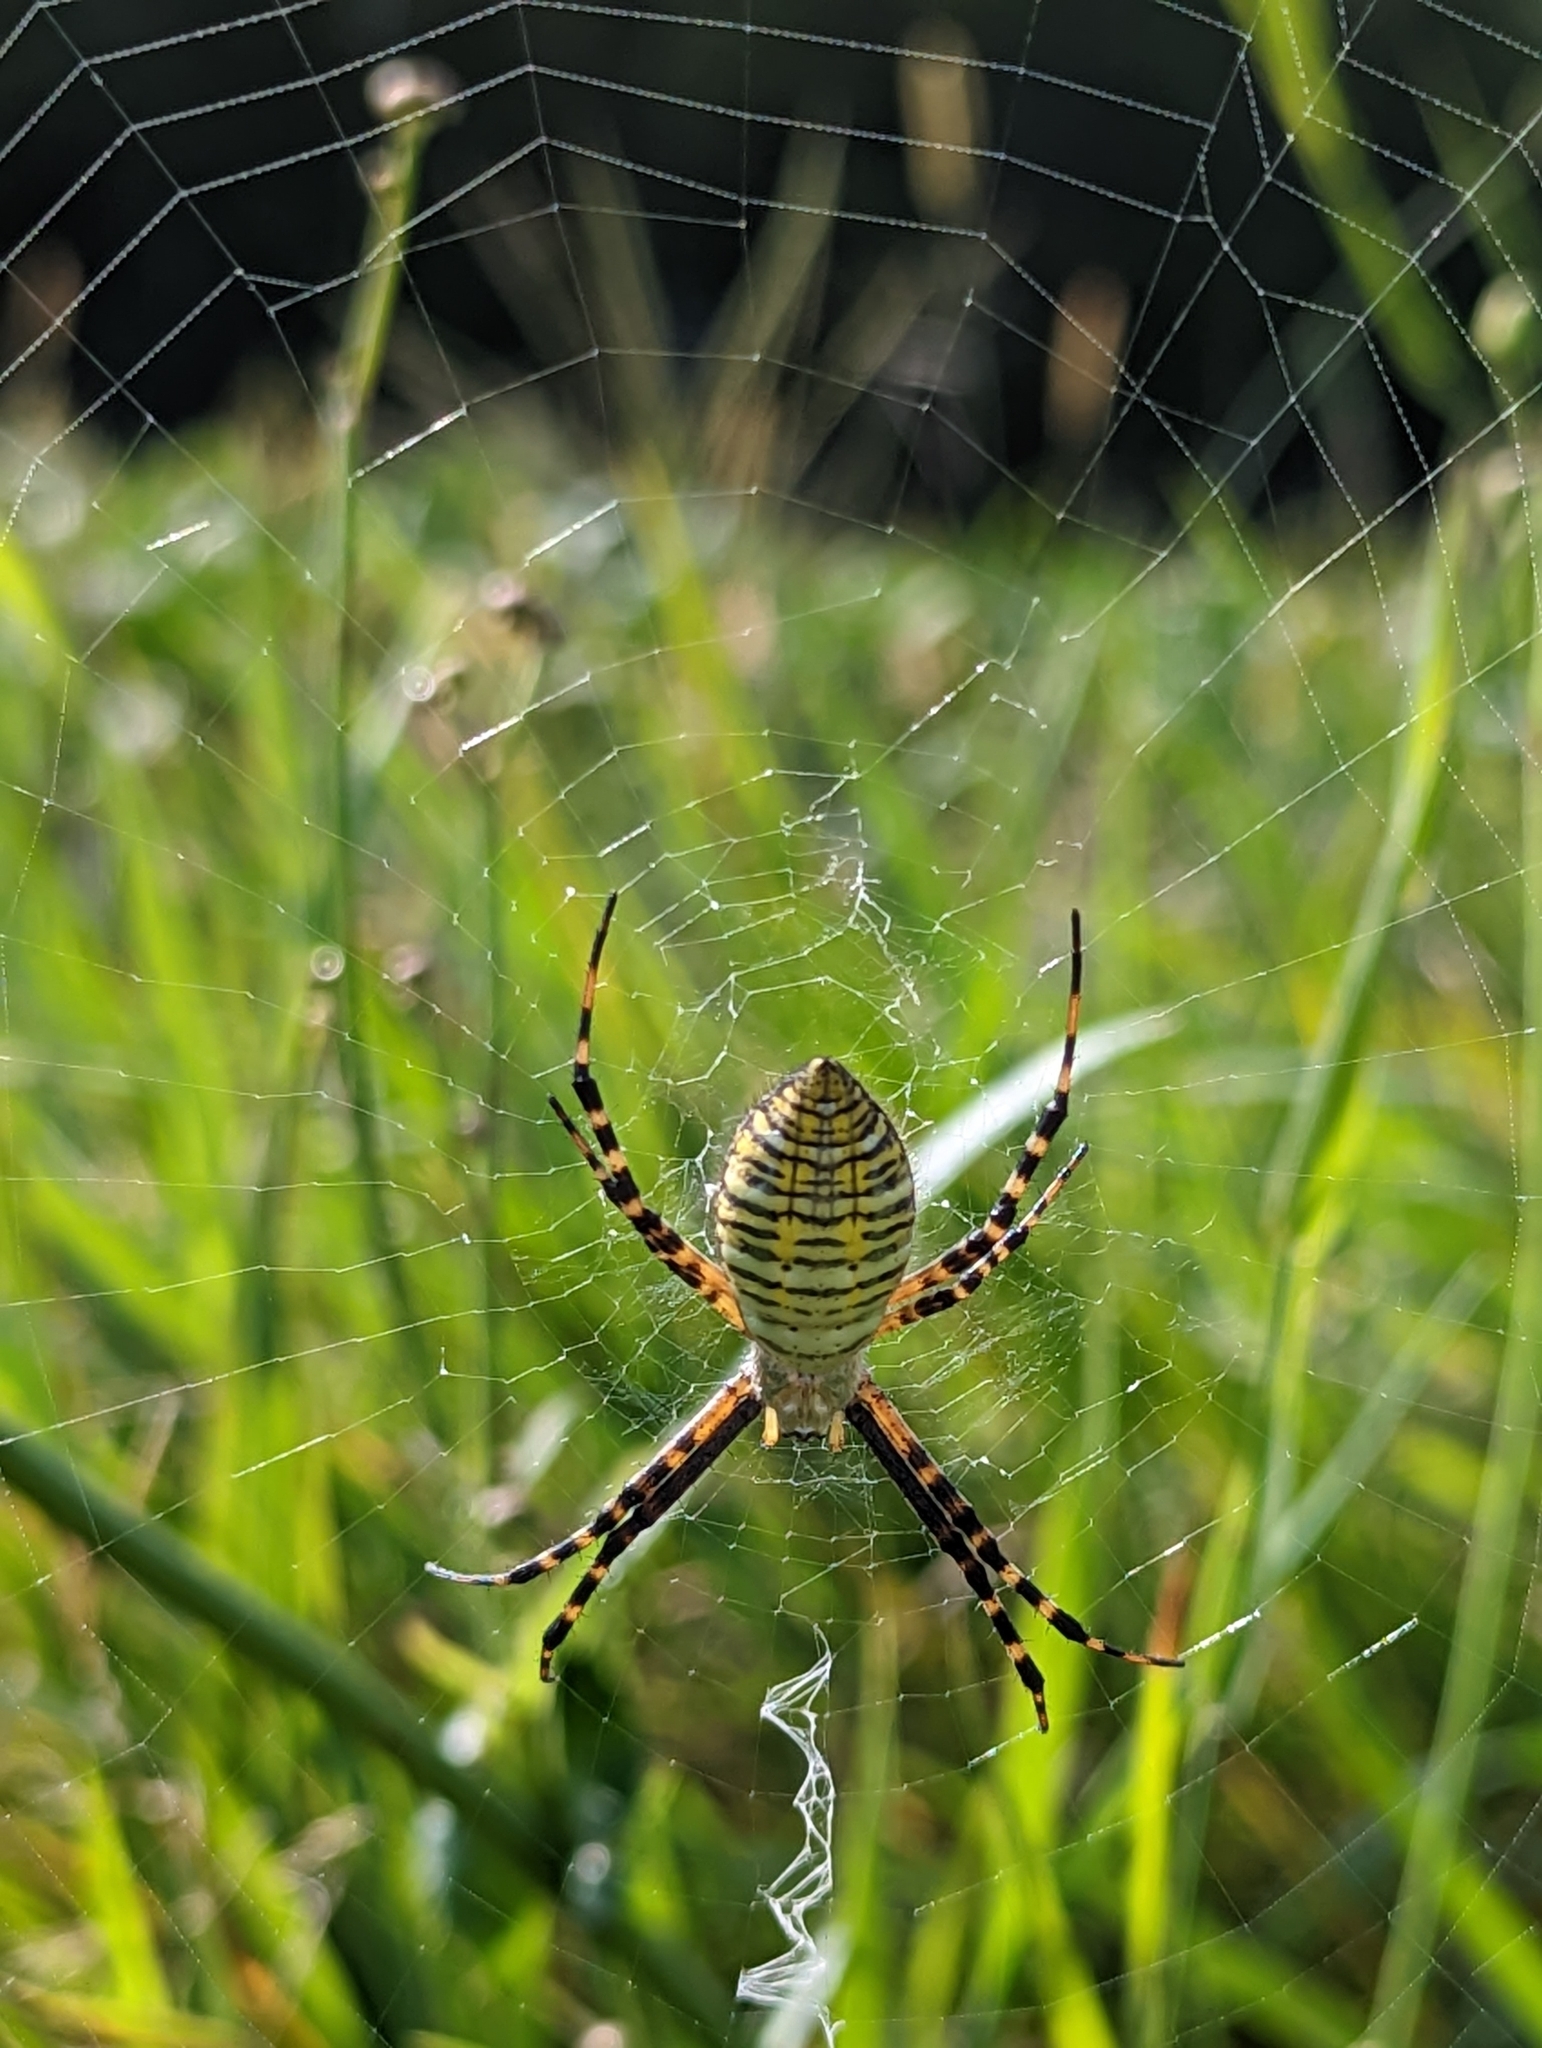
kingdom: Animalia
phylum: Arthropoda
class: Arachnida
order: Araneae
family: Araneidae
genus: Argiope
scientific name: Argiope trifasciata
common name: Banded garden spider
